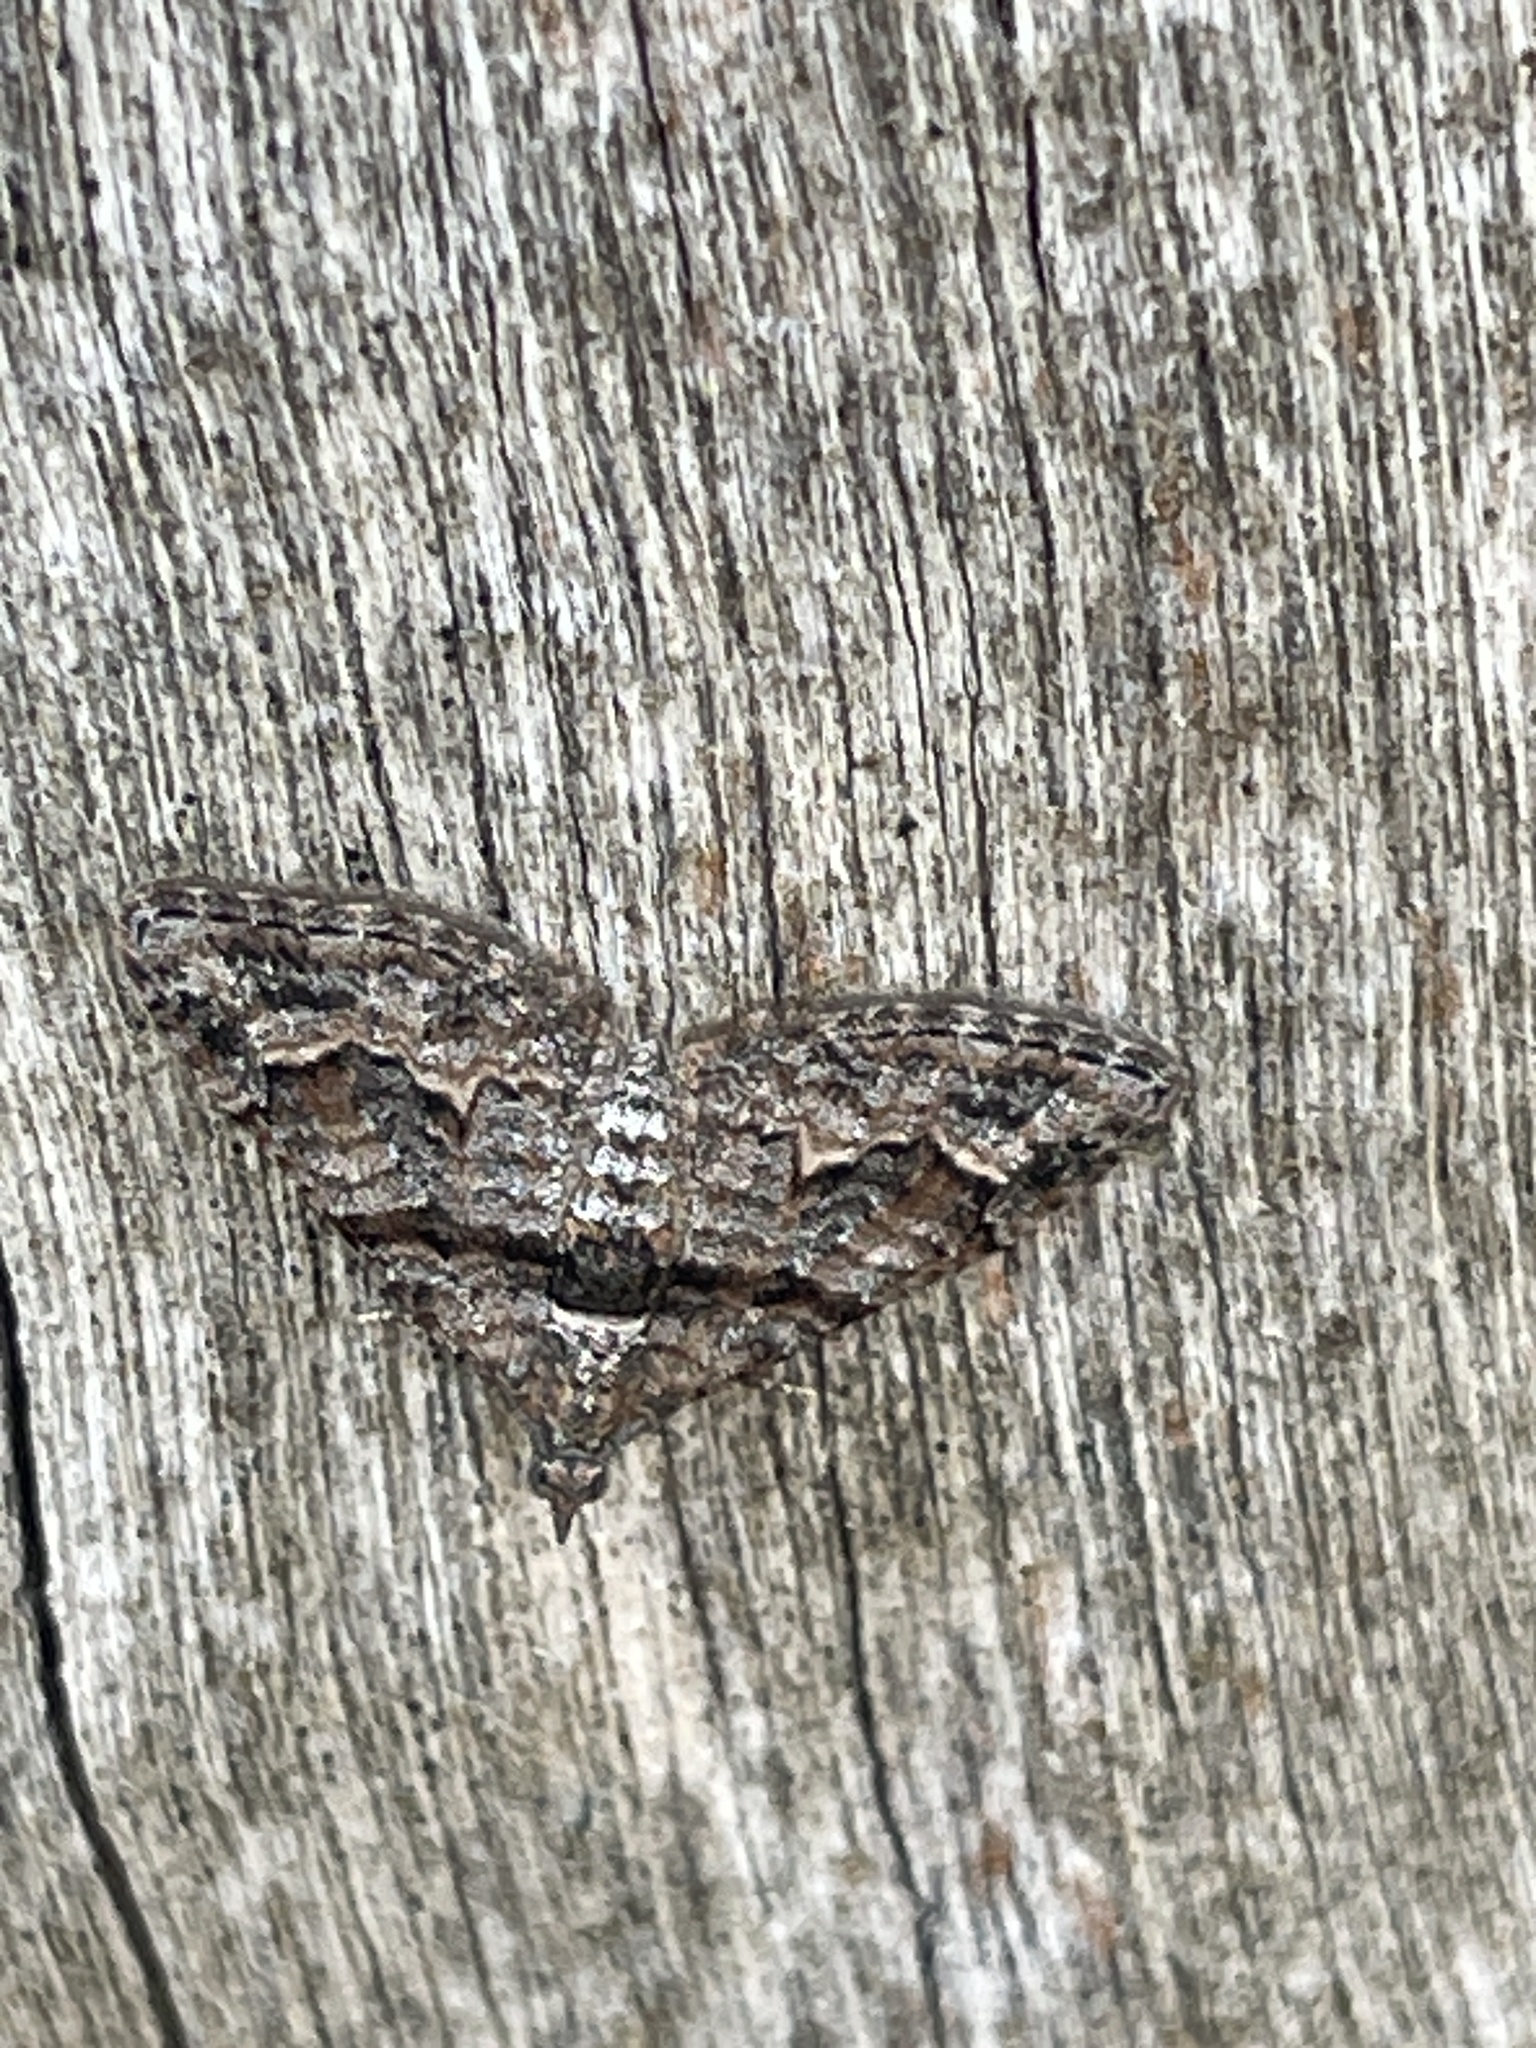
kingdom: Animalia
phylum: Arthropoda
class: Insecta
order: Lepidoptera
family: Geometridae
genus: Phrissogonus
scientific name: Phrissogonus laticostata
